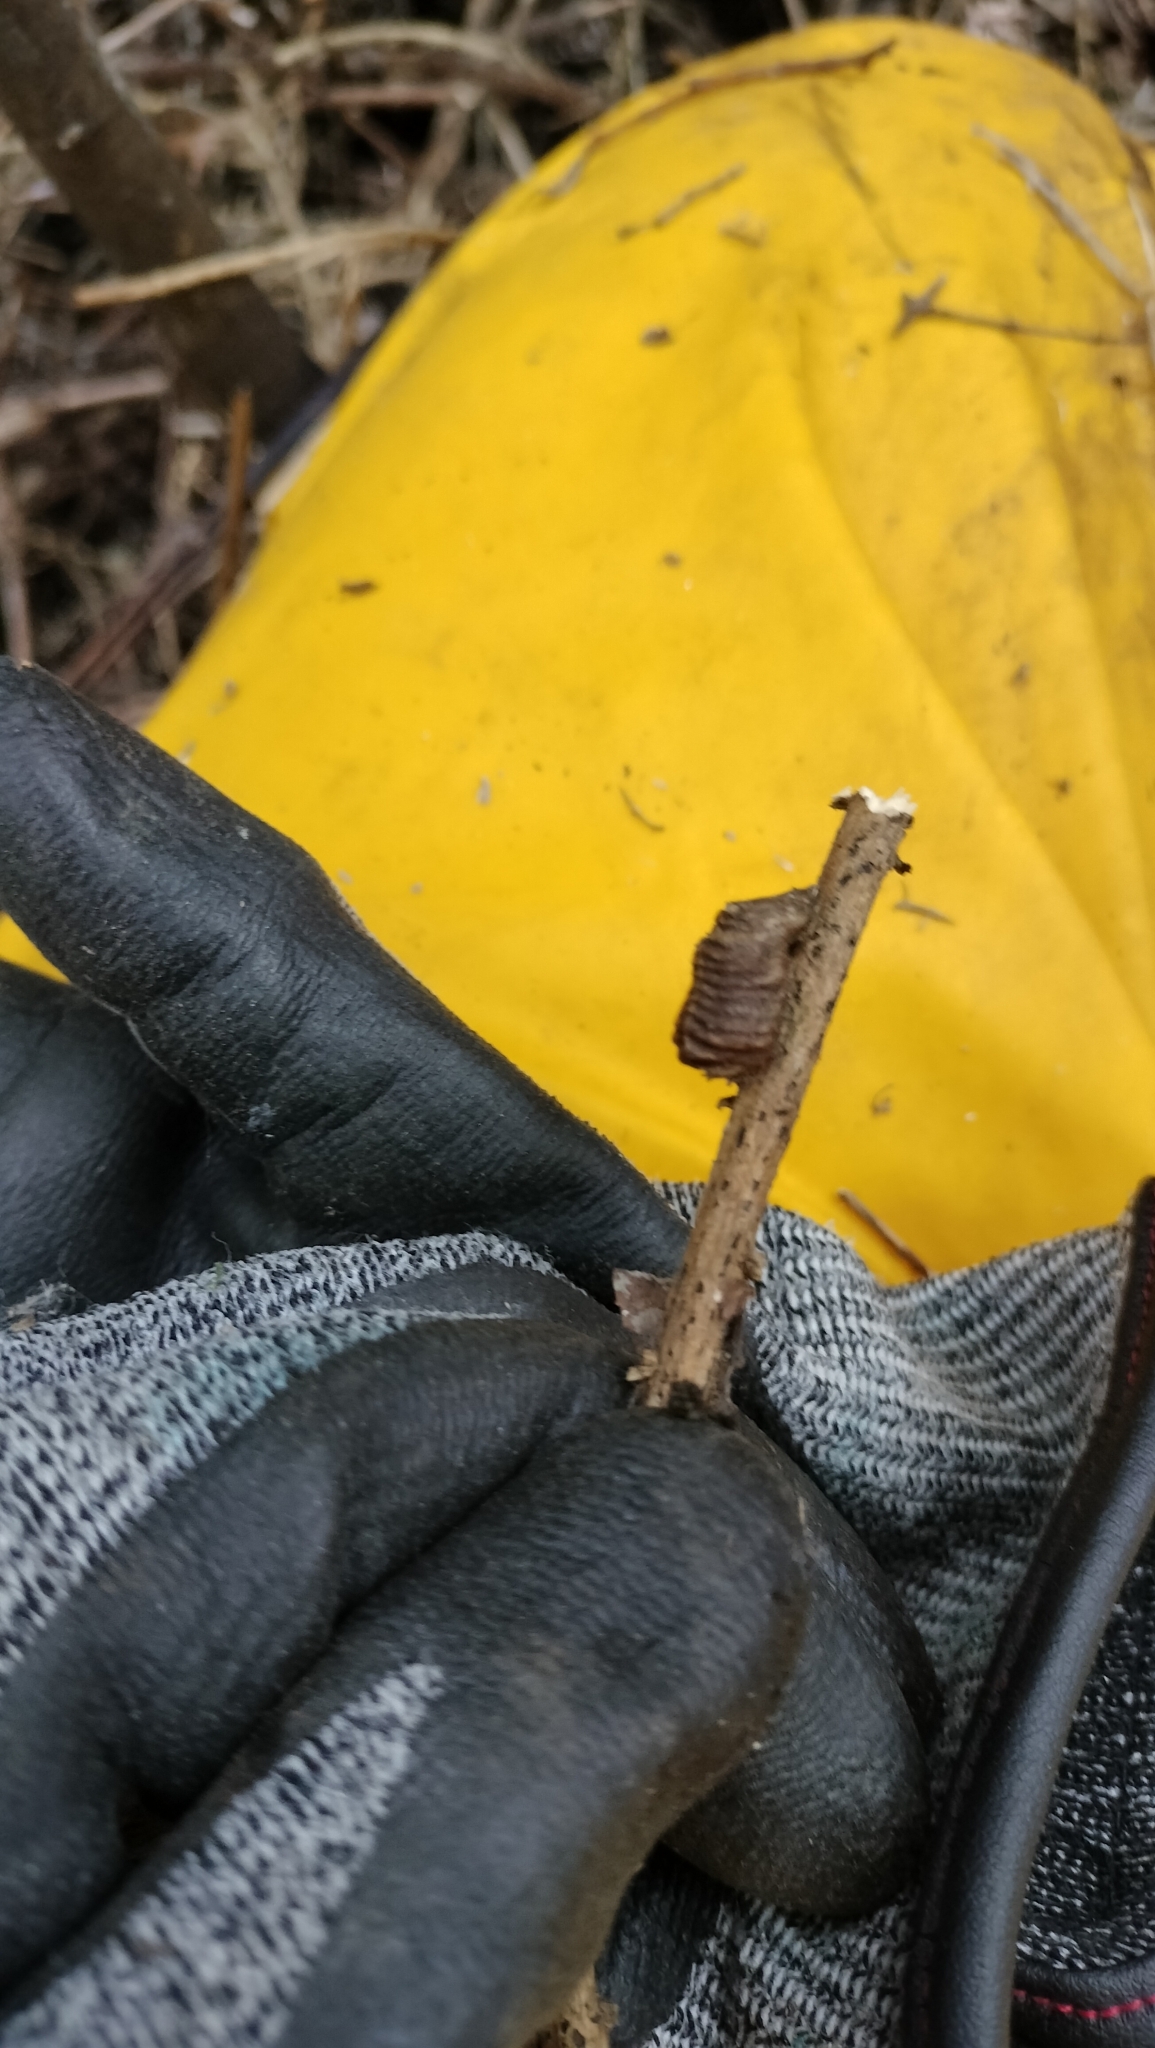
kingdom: Animalia
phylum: Arthropoda
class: Insecta
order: Mantodea
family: Mantidae
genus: Orthodera
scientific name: Orthodera novaezealandiae
